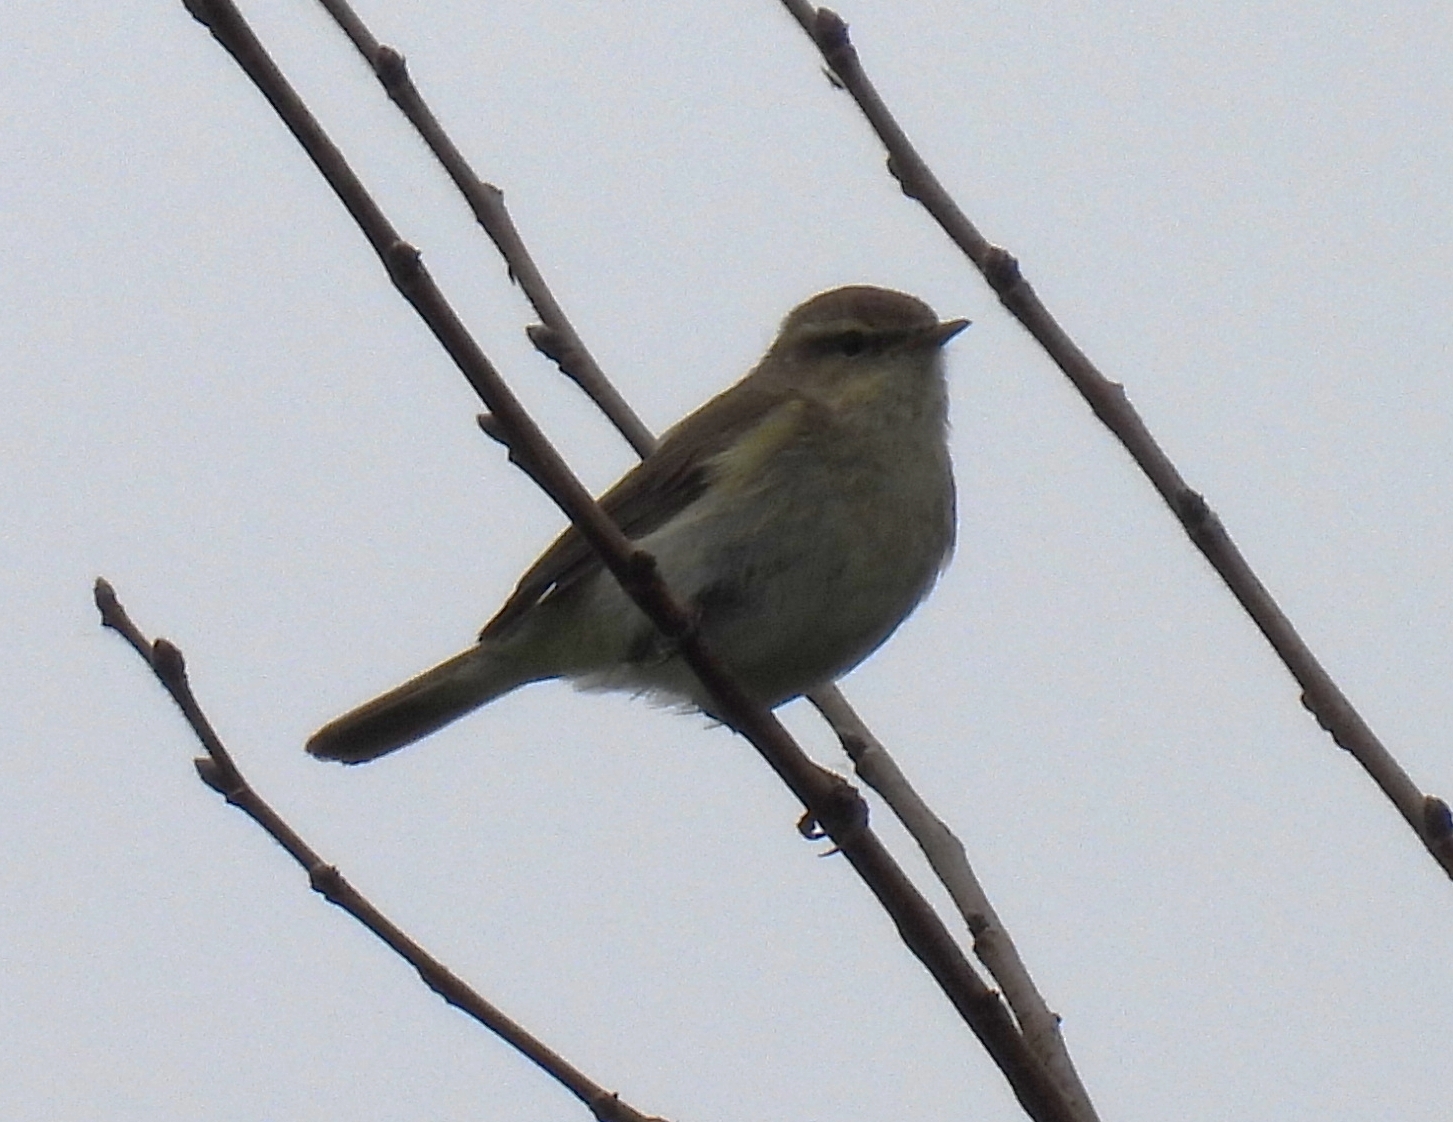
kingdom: Animalia
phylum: Chordata
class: Aves
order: Passeriformes
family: Phylloscopidae
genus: Phylloscopus
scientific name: Phylloscopus collybita
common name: Common chiffchaff
